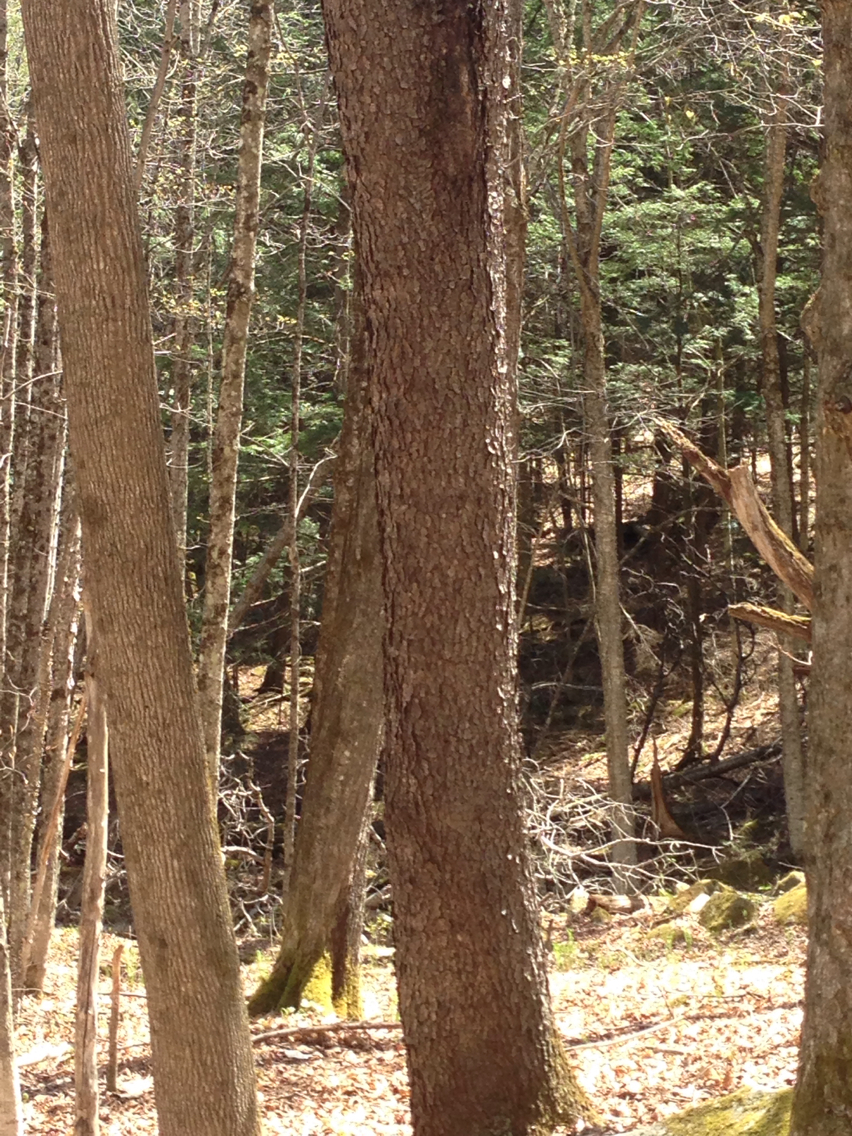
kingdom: Plantae
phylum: Tracheophyta
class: Magnoliopsida
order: Rosales
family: Rosaceae
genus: Prunus
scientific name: Prunus serotina
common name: Black cherry
